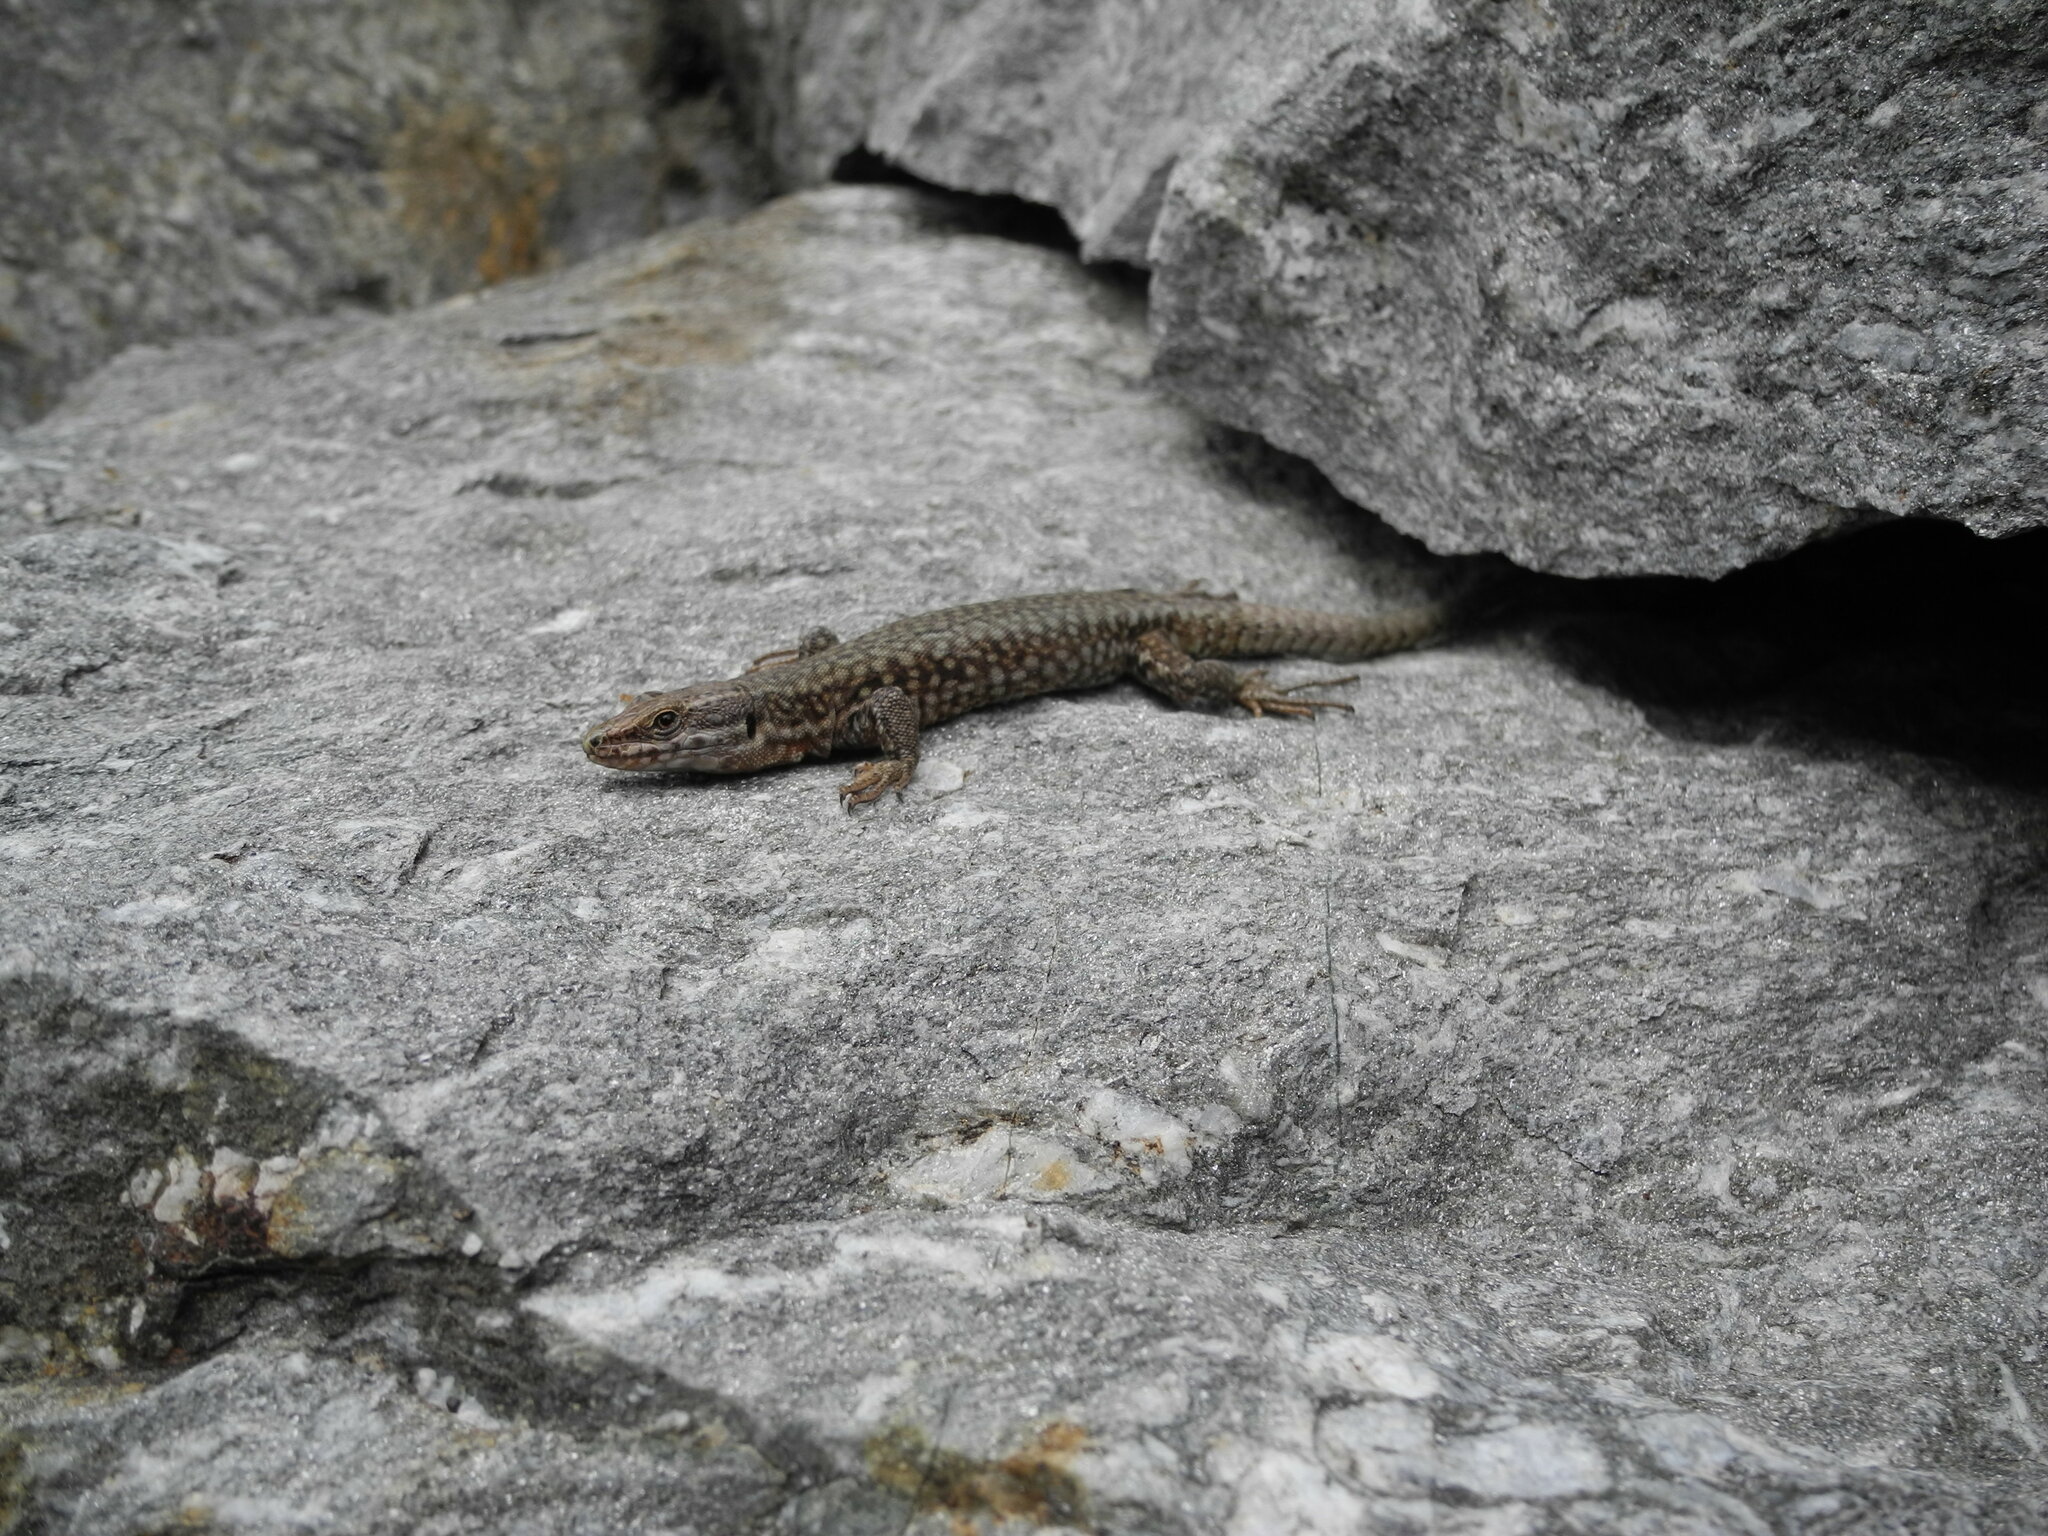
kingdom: Animalia
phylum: Chordata
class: Squamata
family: Lacertidae
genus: Podarcis
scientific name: Podarcis muralis
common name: Common wall lizard
